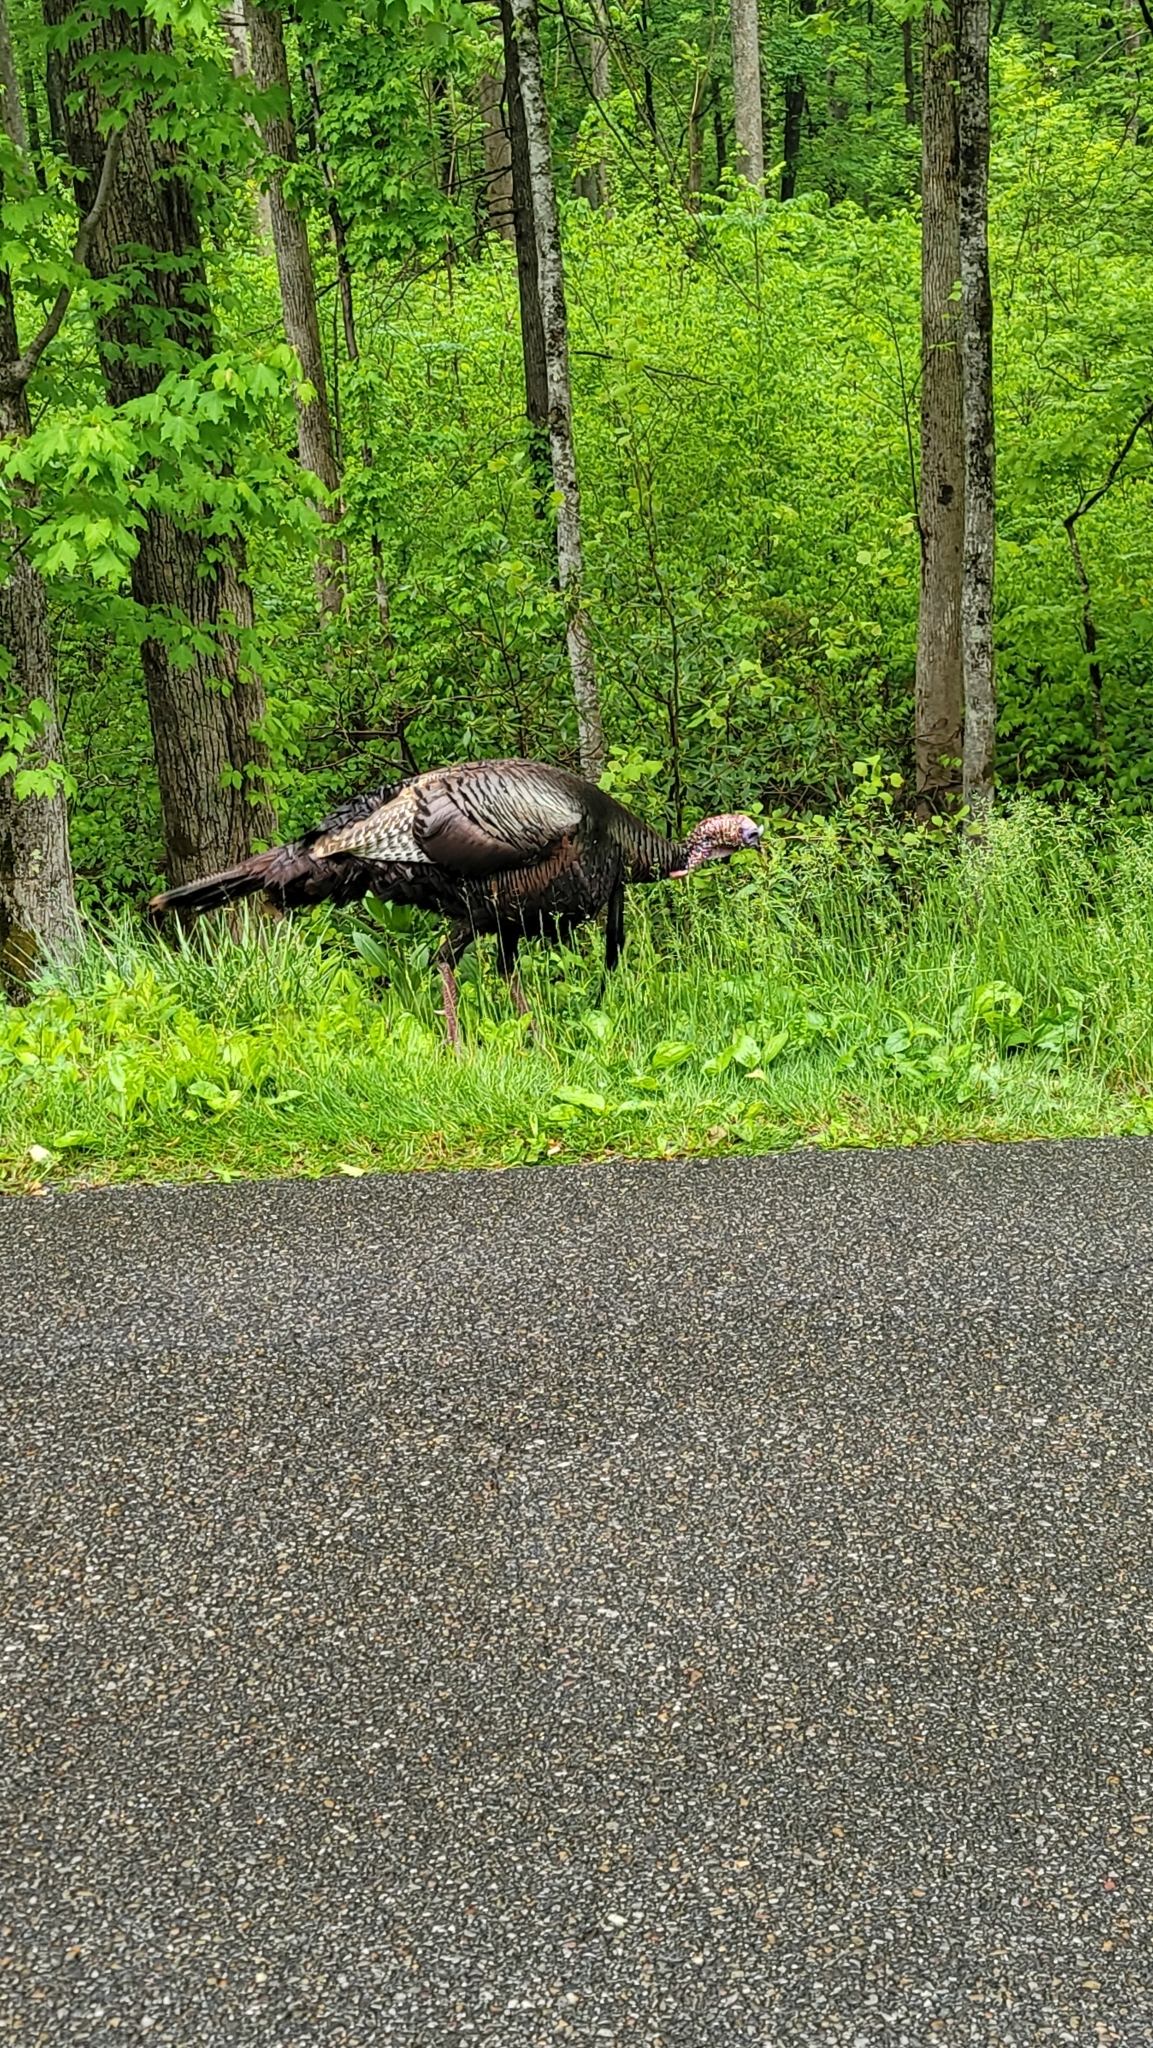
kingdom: Animalia
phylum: Chordata
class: Aves
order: Galliformes
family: Phasianidae
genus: Meleagris
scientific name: Meleagris gallopavo
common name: Wild turkey
